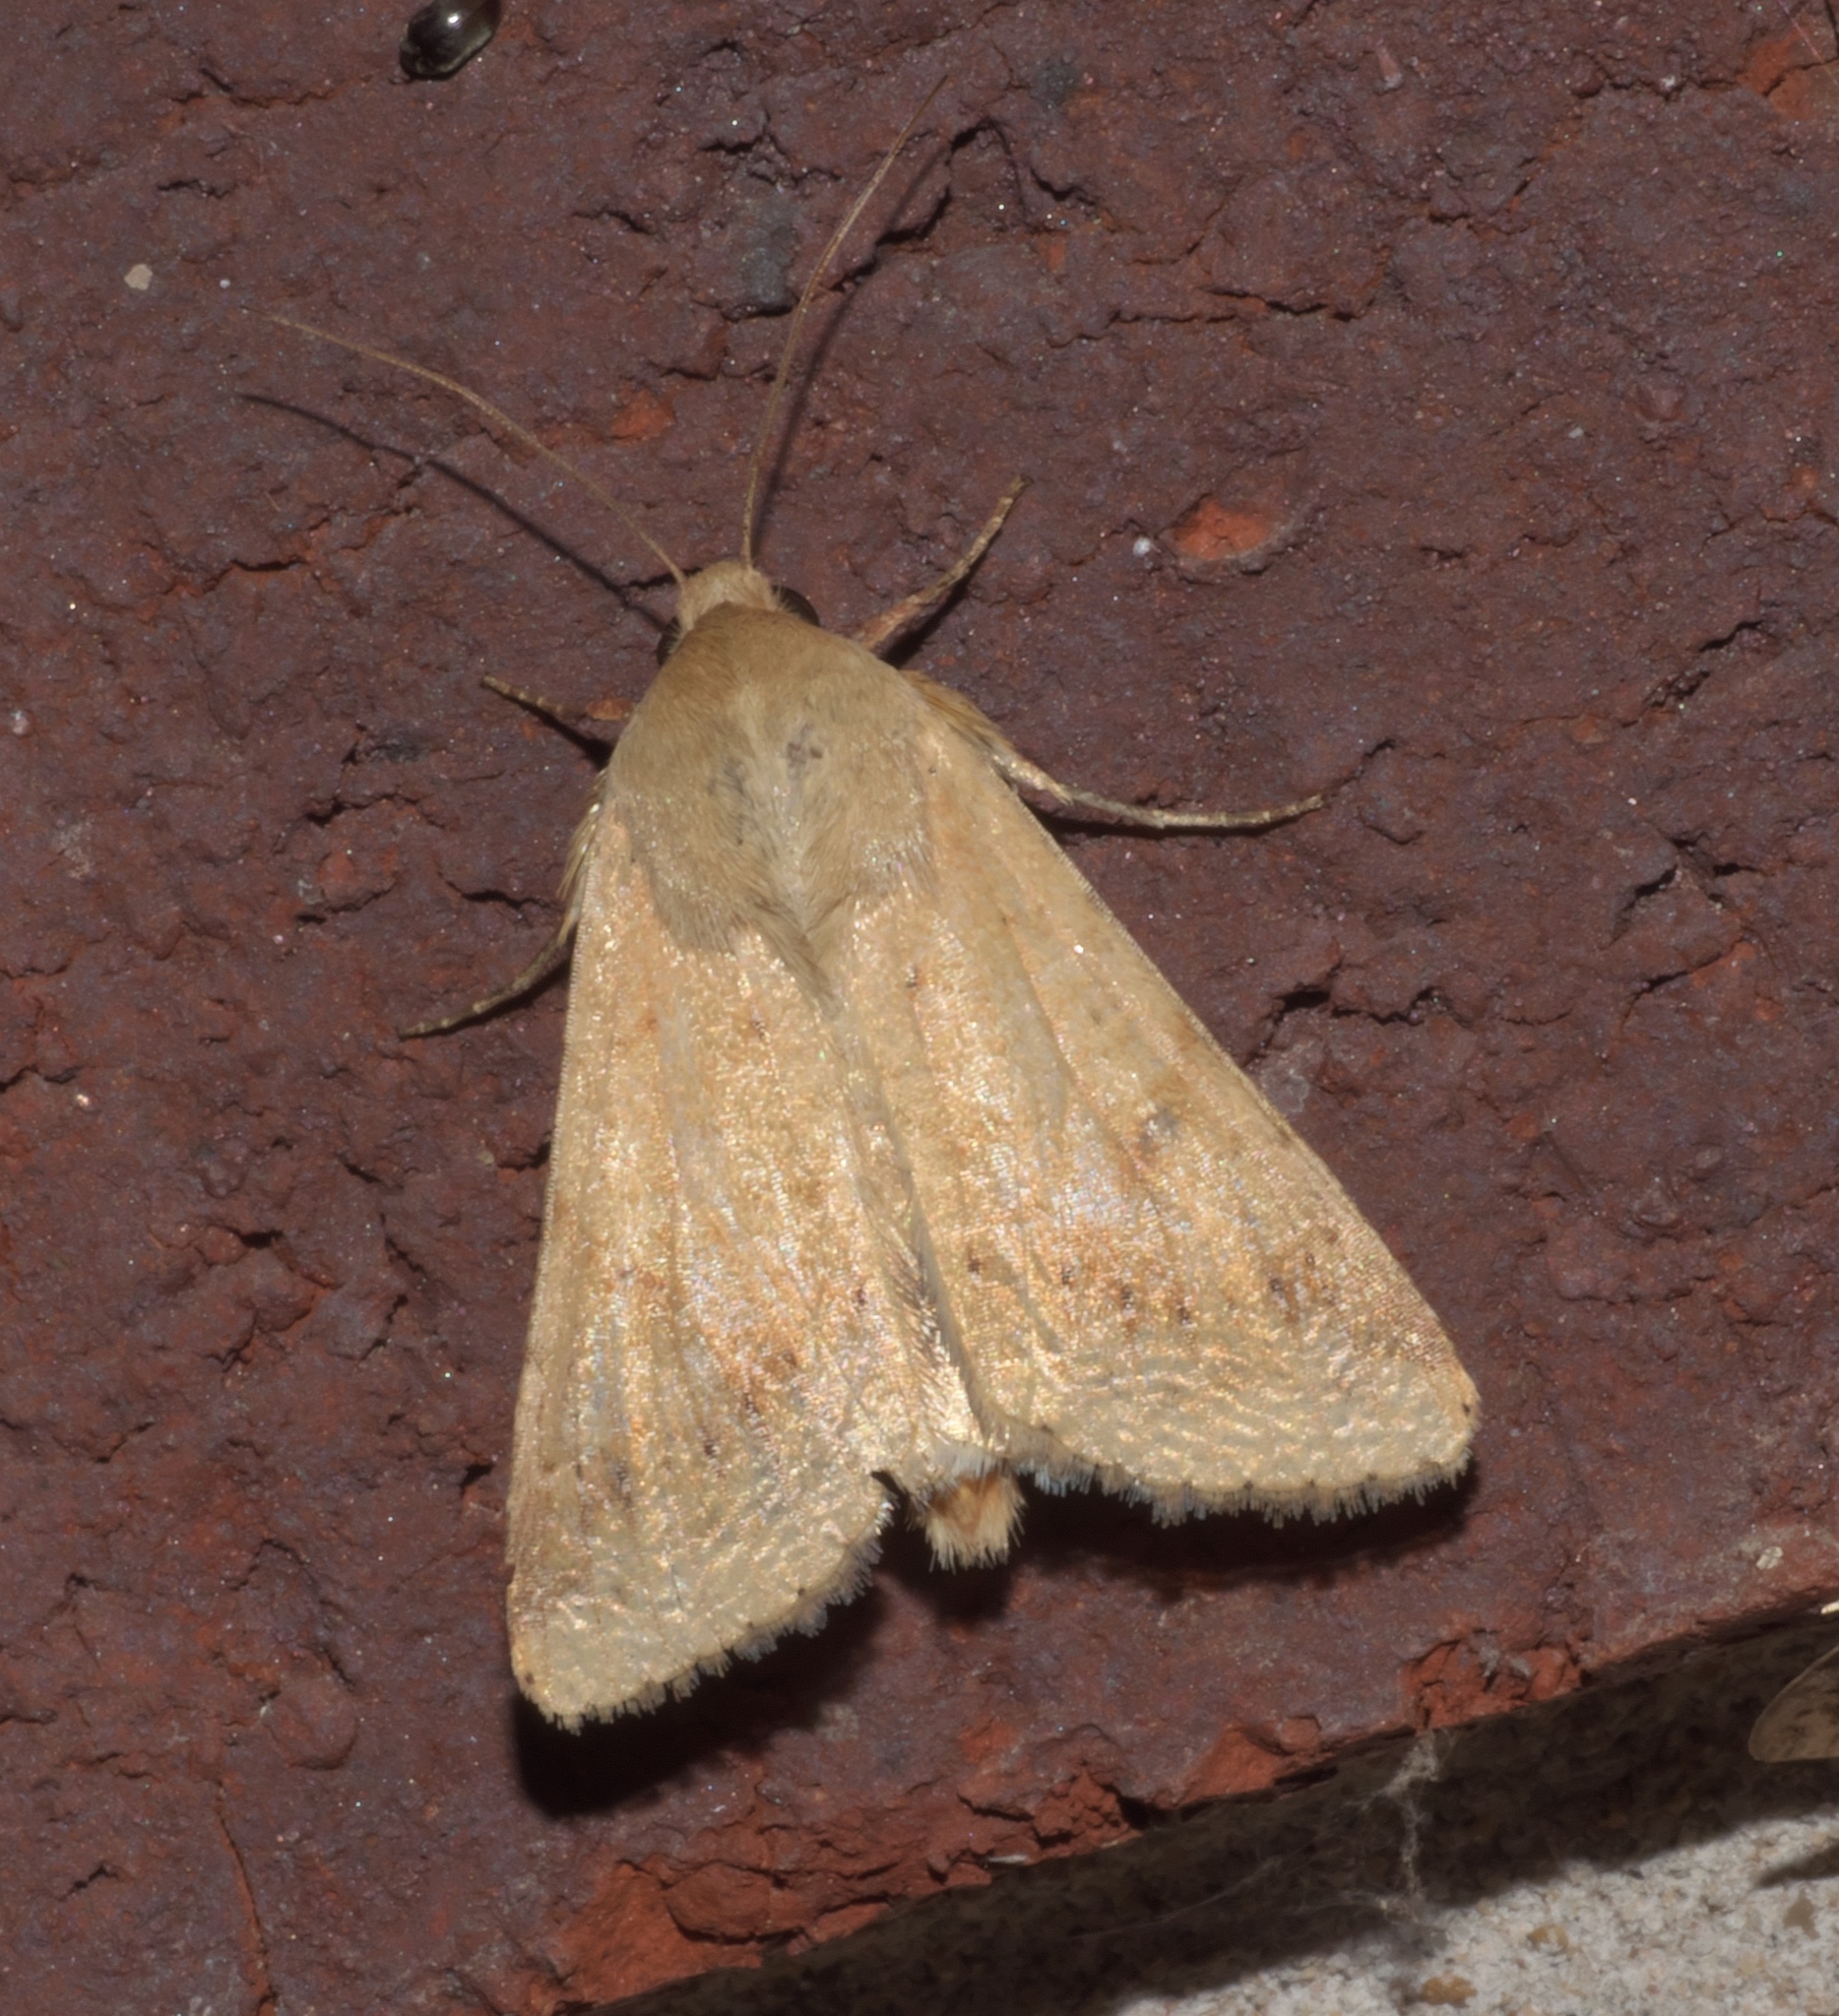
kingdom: Animalia
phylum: Arthropoda
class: Insecta
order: Lepidoptera
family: Noctuidae
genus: Helicoverpa
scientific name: Helicoverpa zea
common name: Bollworm
